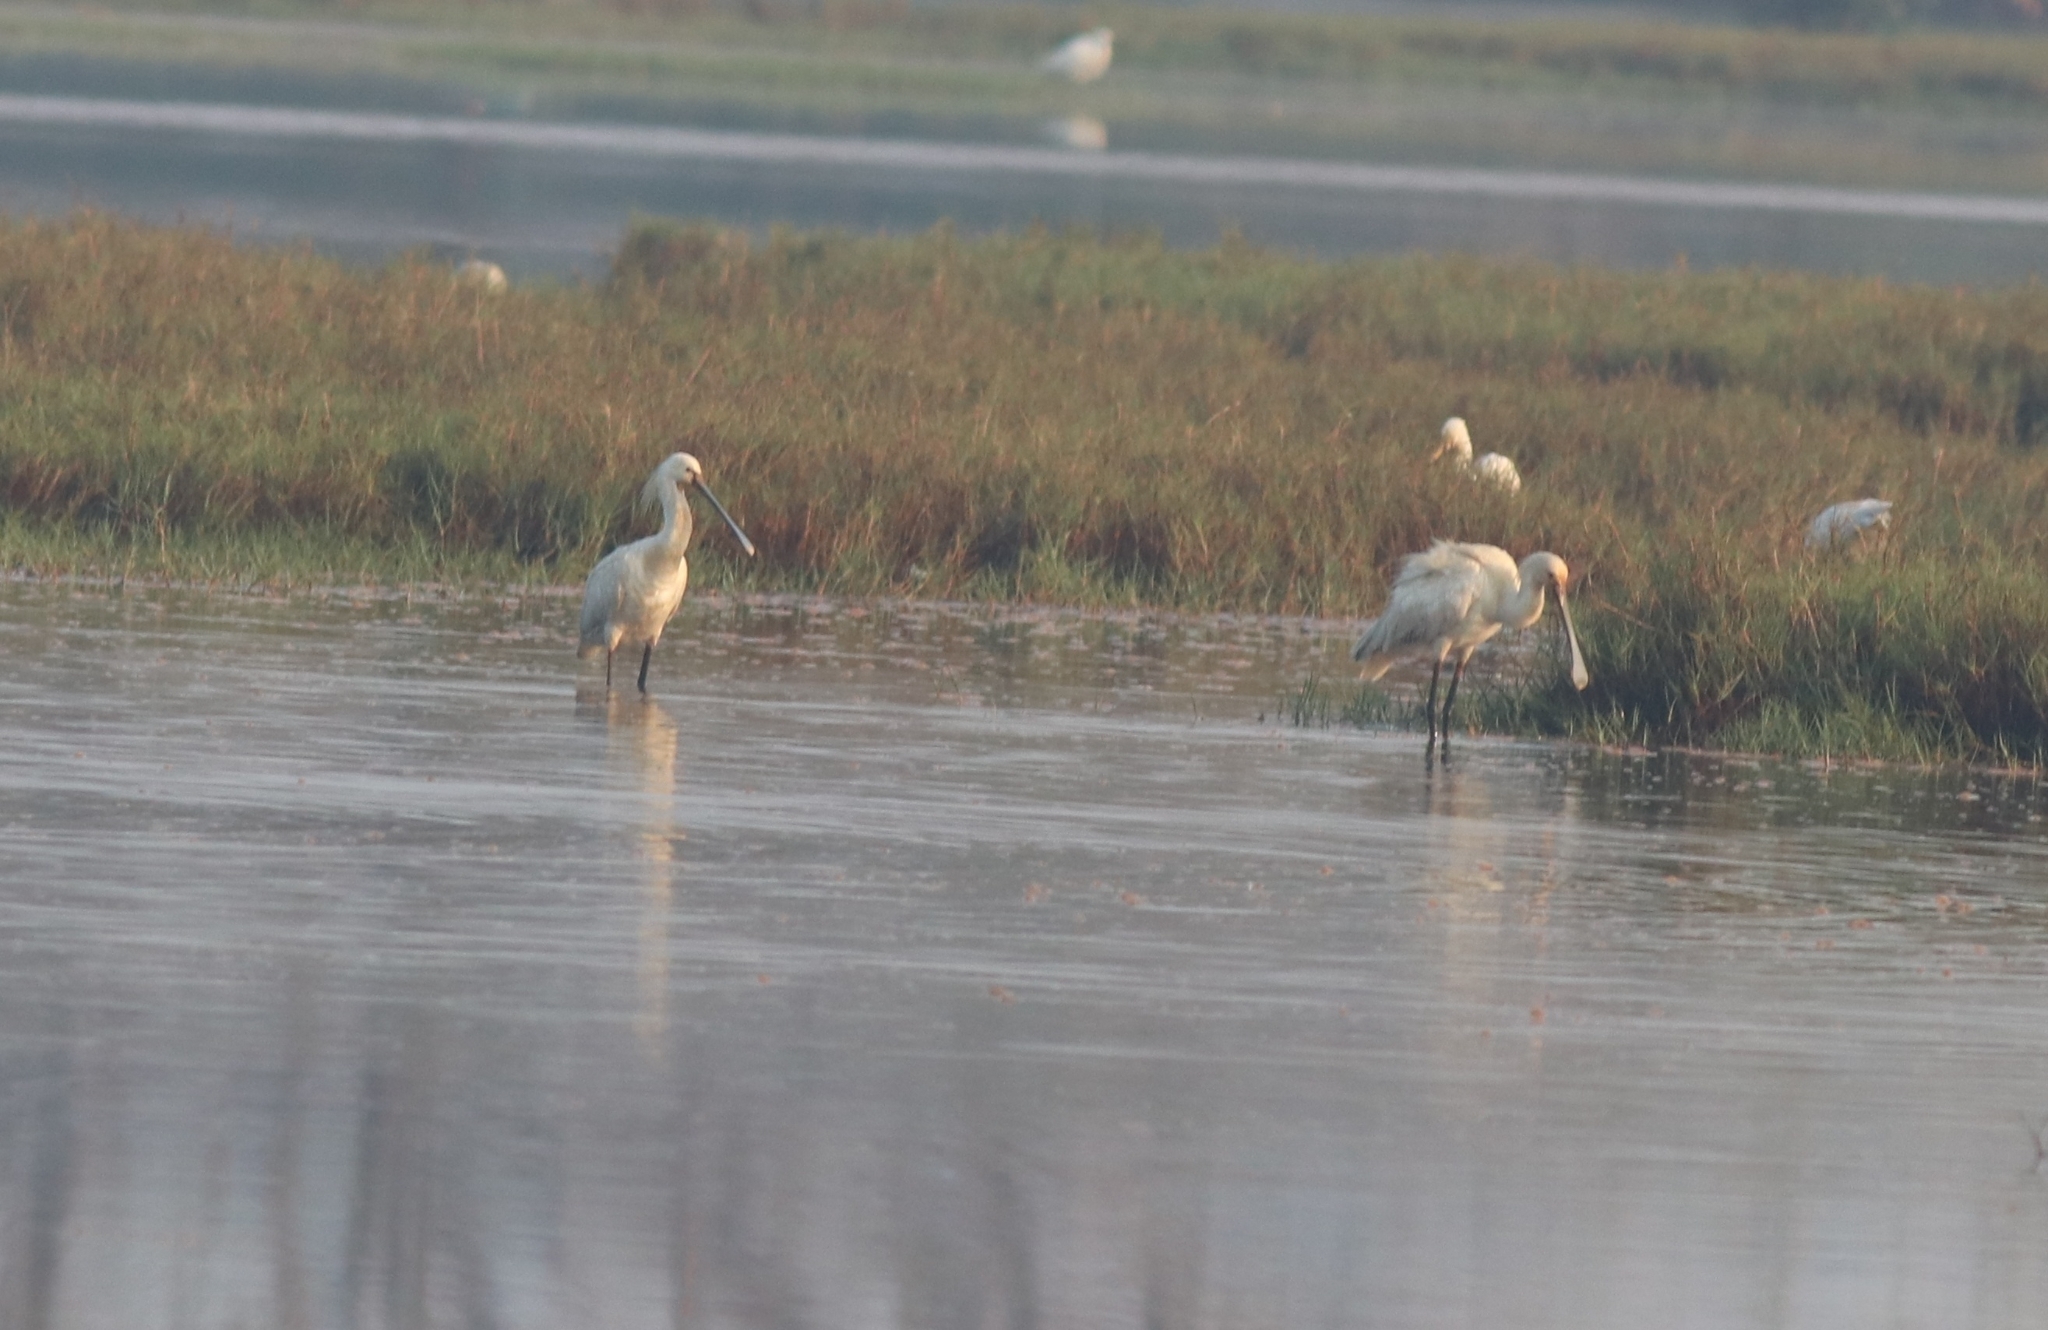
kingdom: Animalia
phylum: Chordata
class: Aves
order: Pelecaniformes
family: Threskiornithidae
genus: Platalea
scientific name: Platalea leucorodia
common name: Eurasian spoonbill
